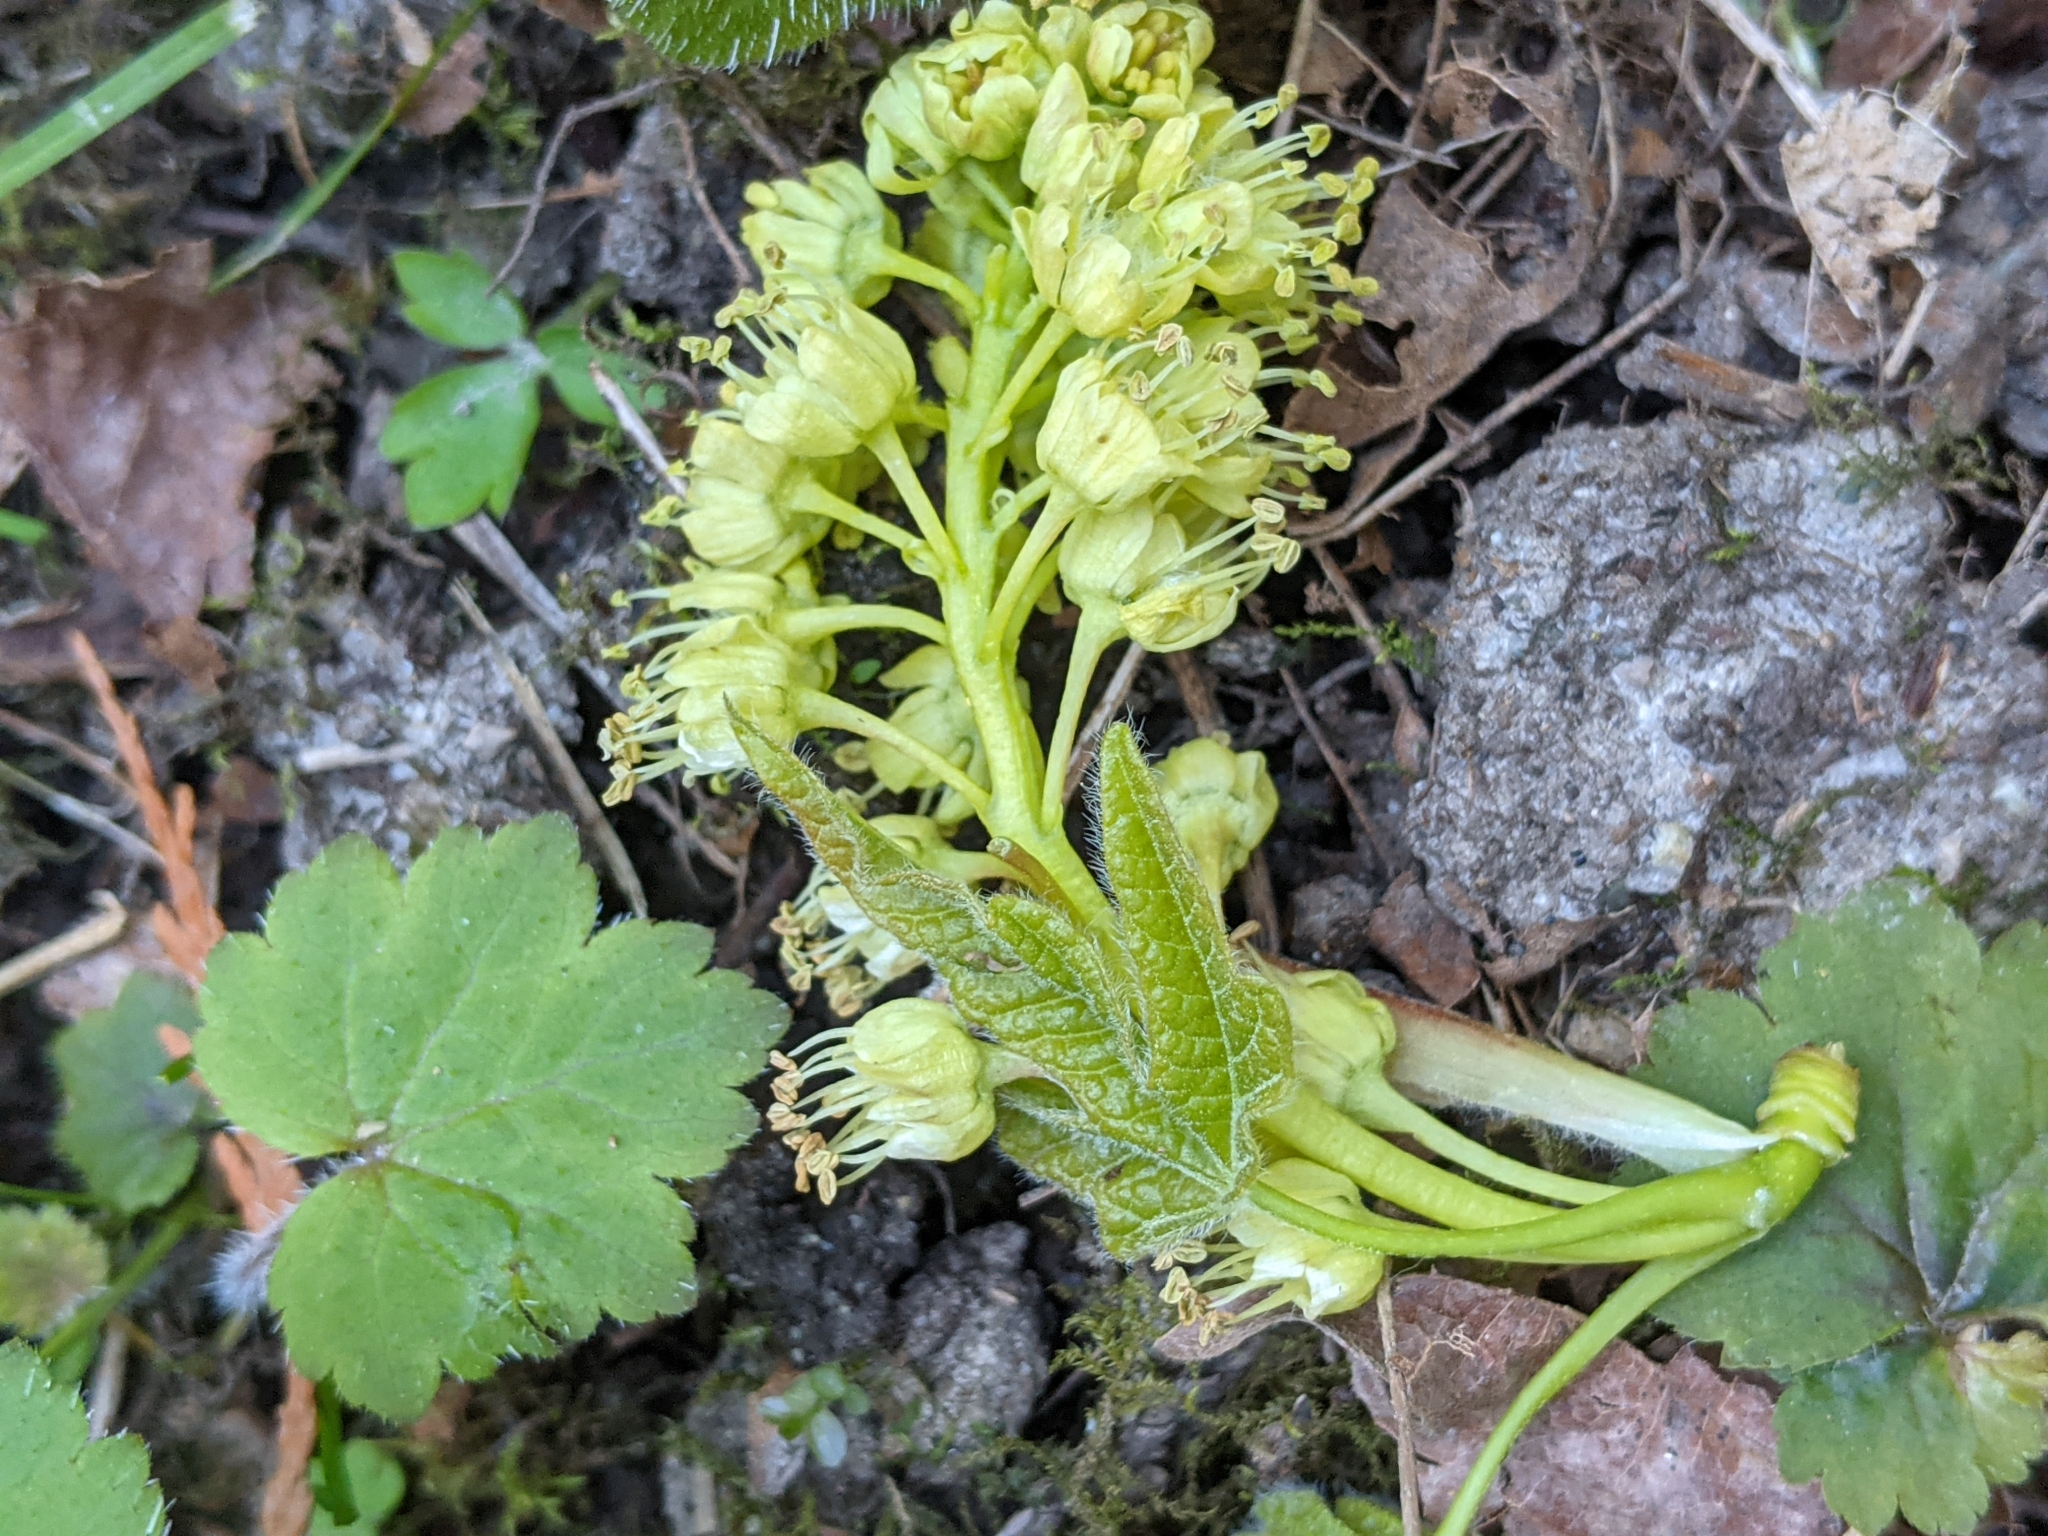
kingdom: Plantae
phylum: Tracheophyta
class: Magnoliopsida
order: Sapindales
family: Sapindaceae
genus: Acer
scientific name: Acer macrophyllum
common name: Oregon maple
